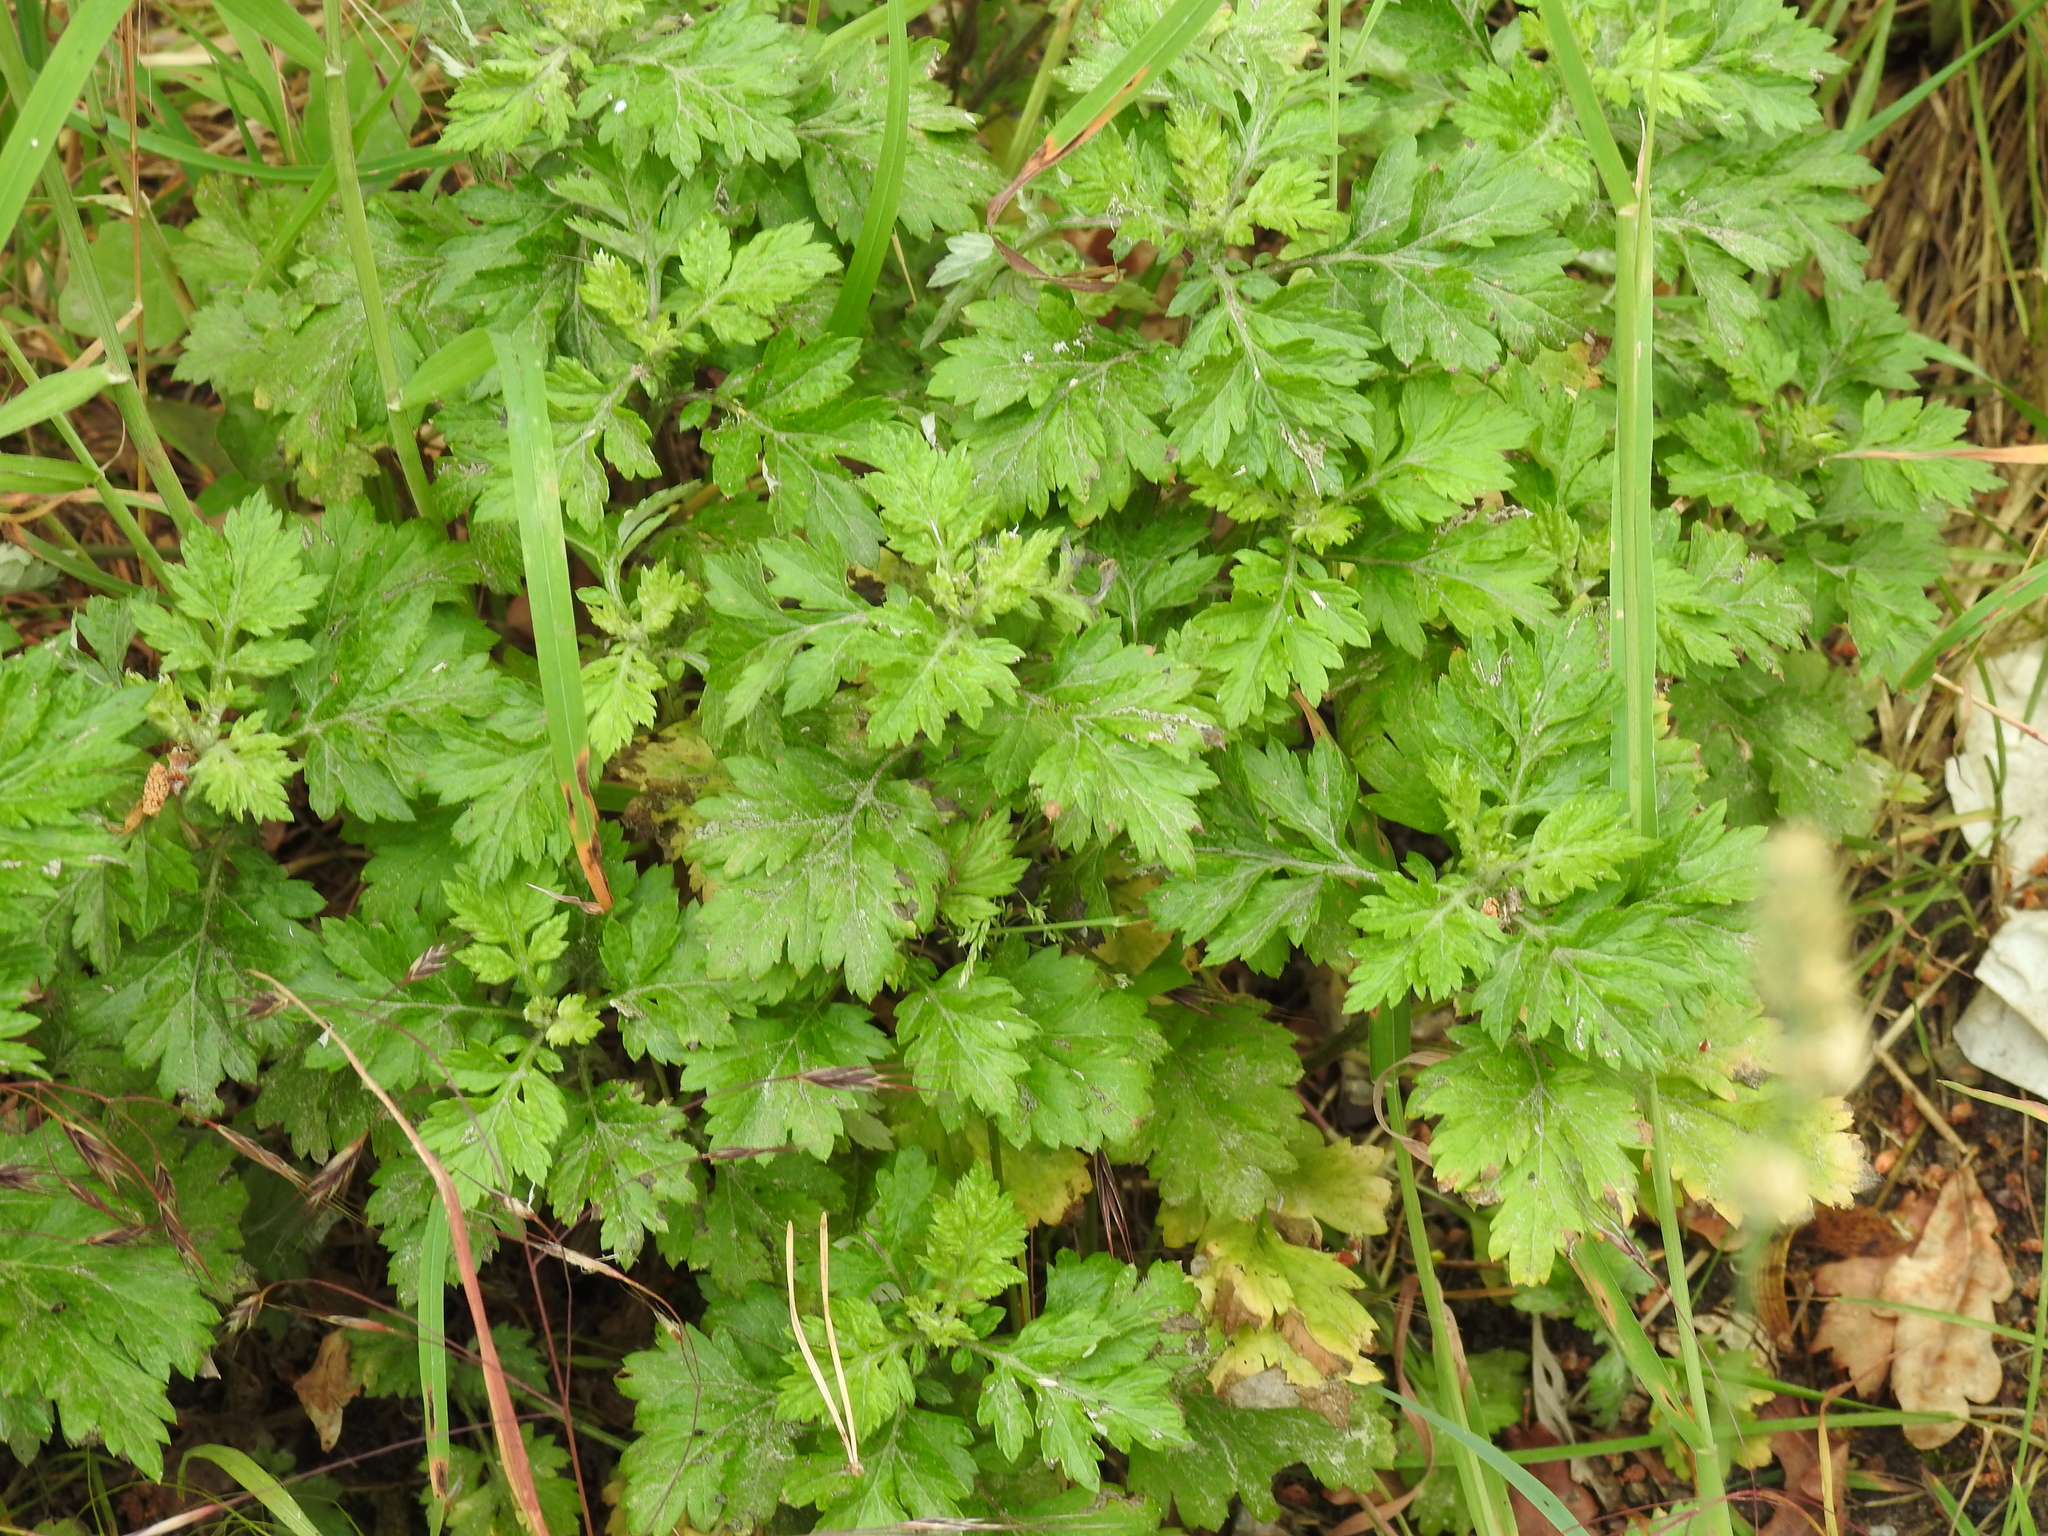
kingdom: Plantae
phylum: Tracheophyta
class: Magnoliopsida
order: Asterales
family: Asteraceae
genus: Tanacetum
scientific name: Tanacetum parthenium
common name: Feverfew
